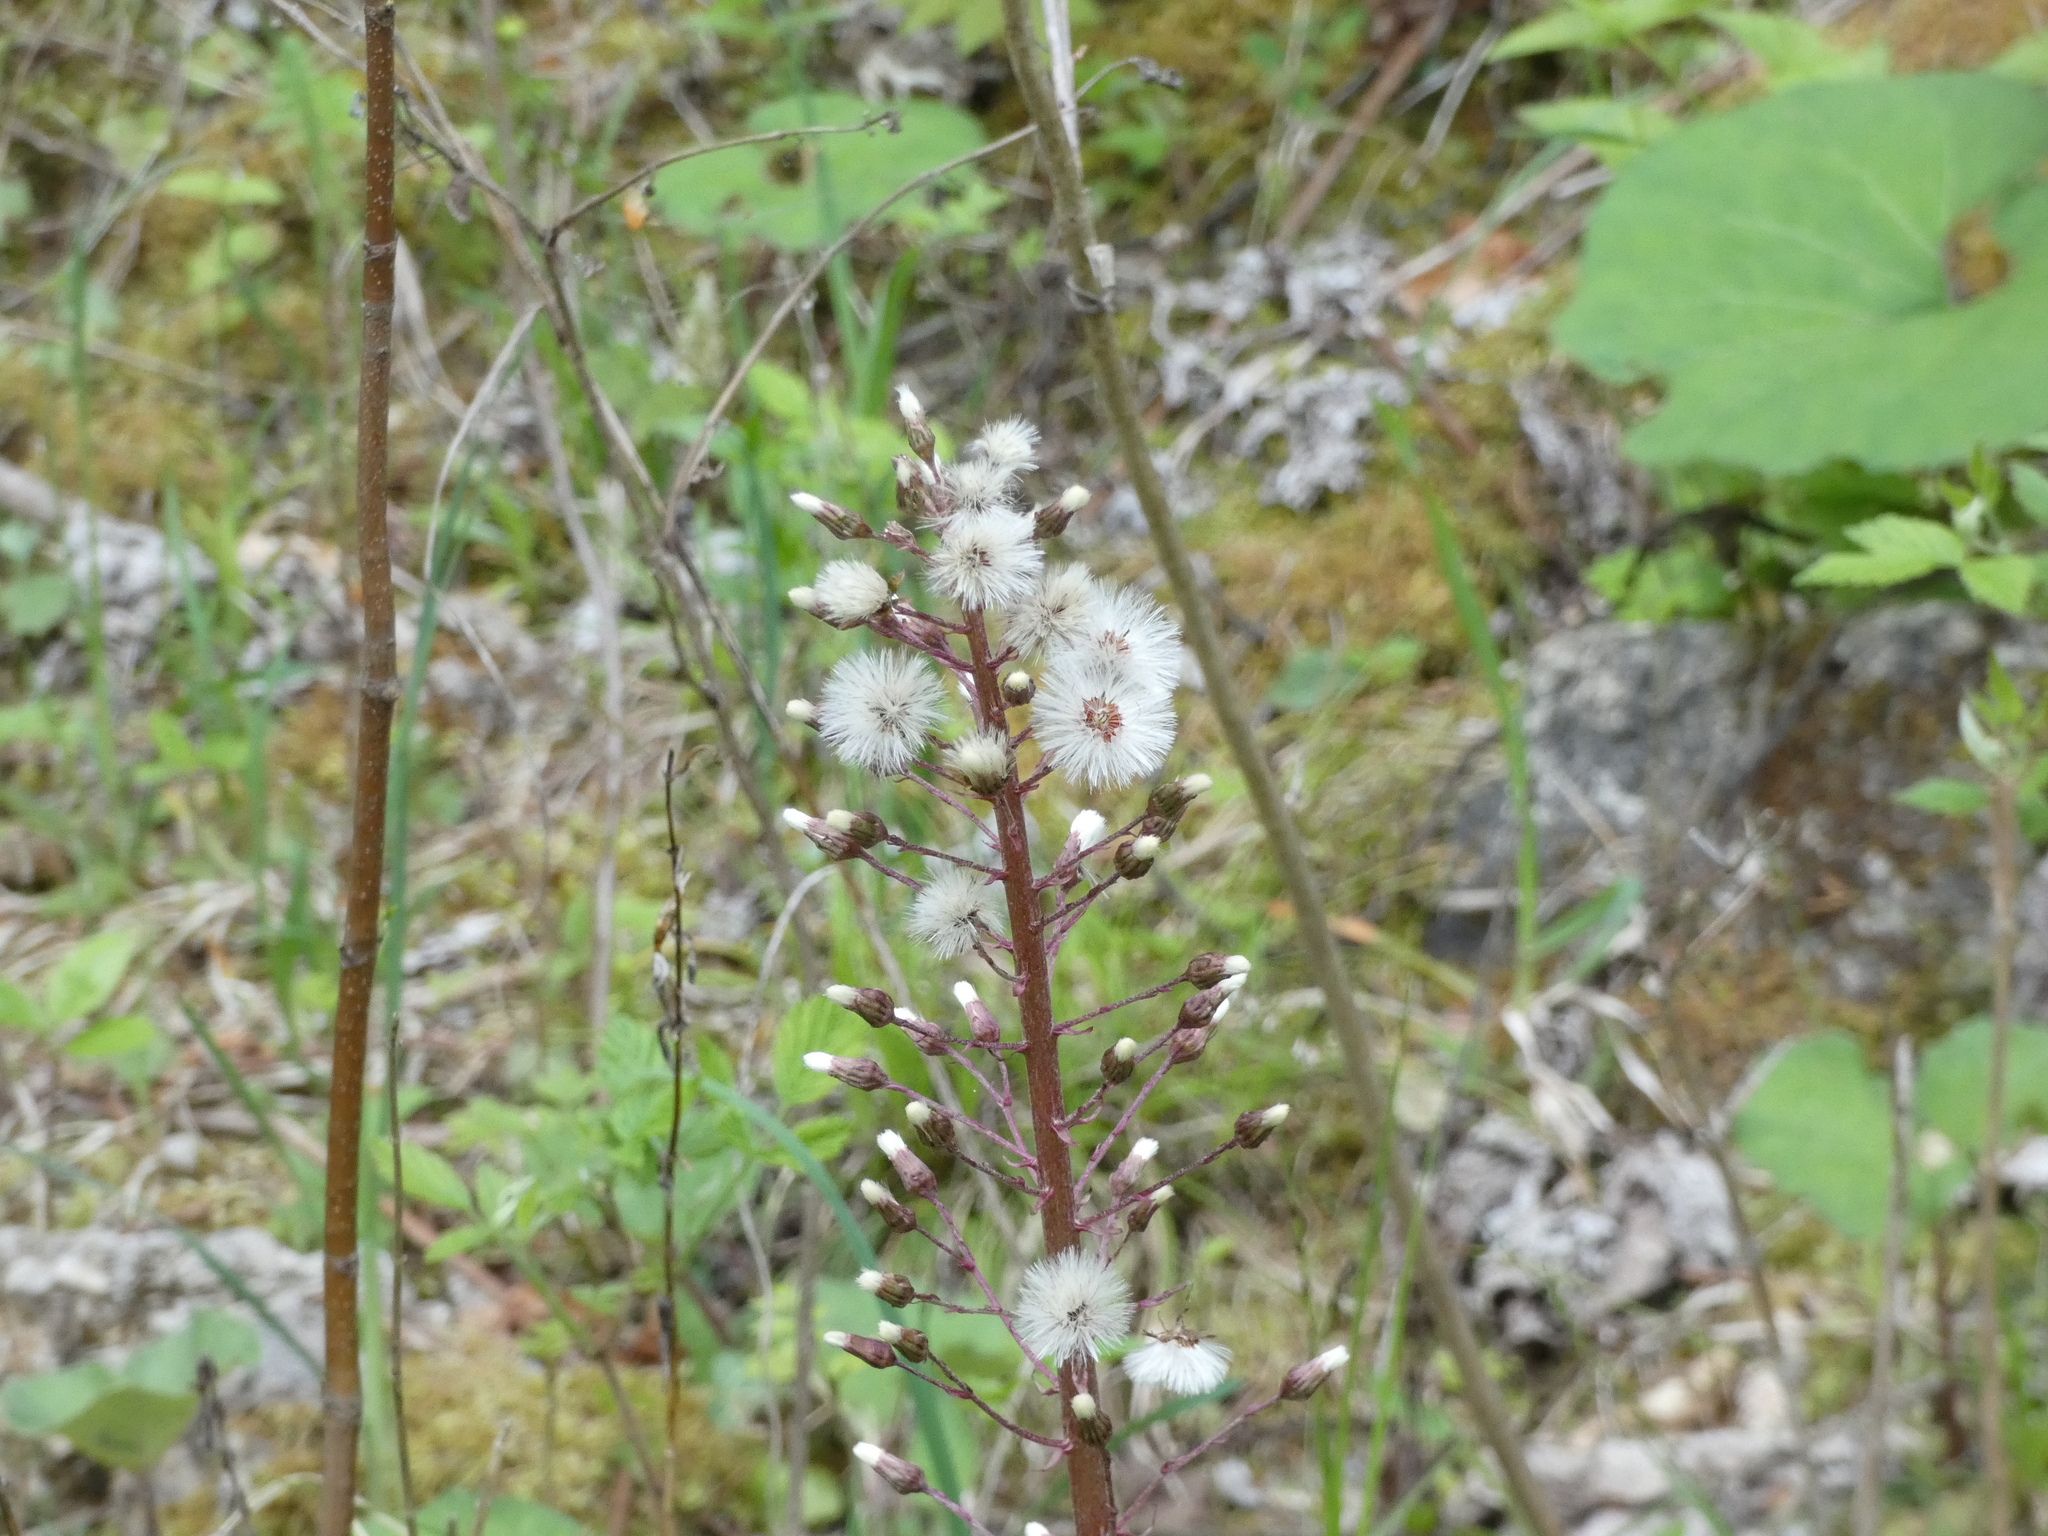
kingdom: Plantae
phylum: Tracheophyta
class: Magnoliopsida
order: Asterales
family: Asteraceae
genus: Petasites
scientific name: Petasites hybridus
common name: Butterbur
